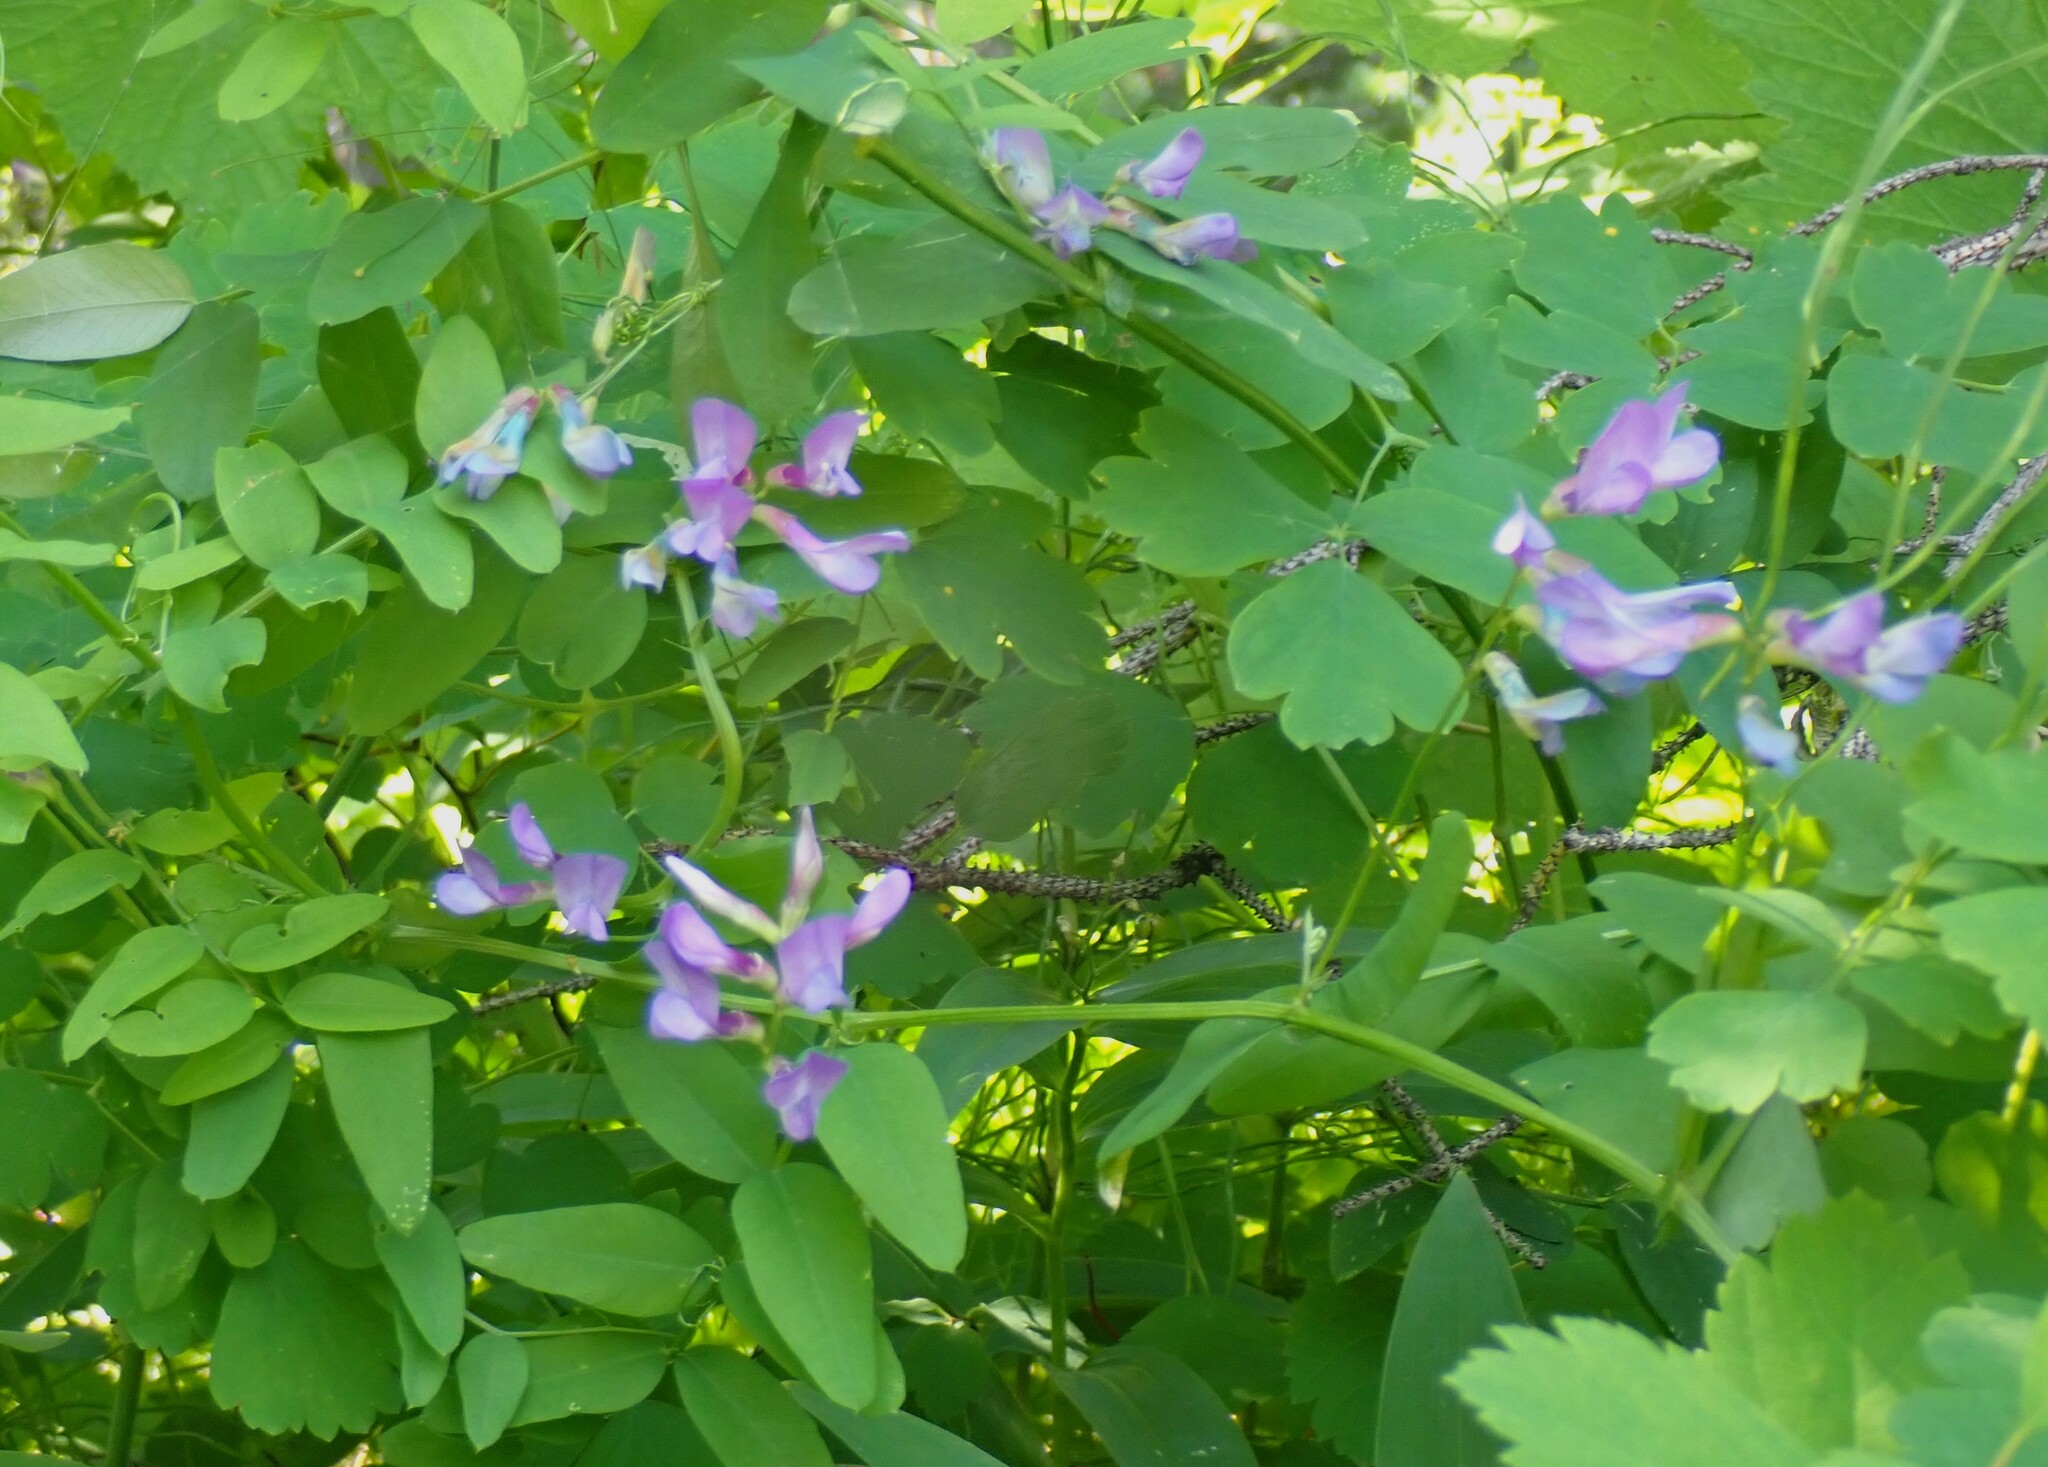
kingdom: Plantae
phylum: Tracheophyta
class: Magnoliopsida
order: Fabales
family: Fabaceae
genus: Vicia
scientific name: Vicia americana
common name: American vetch
